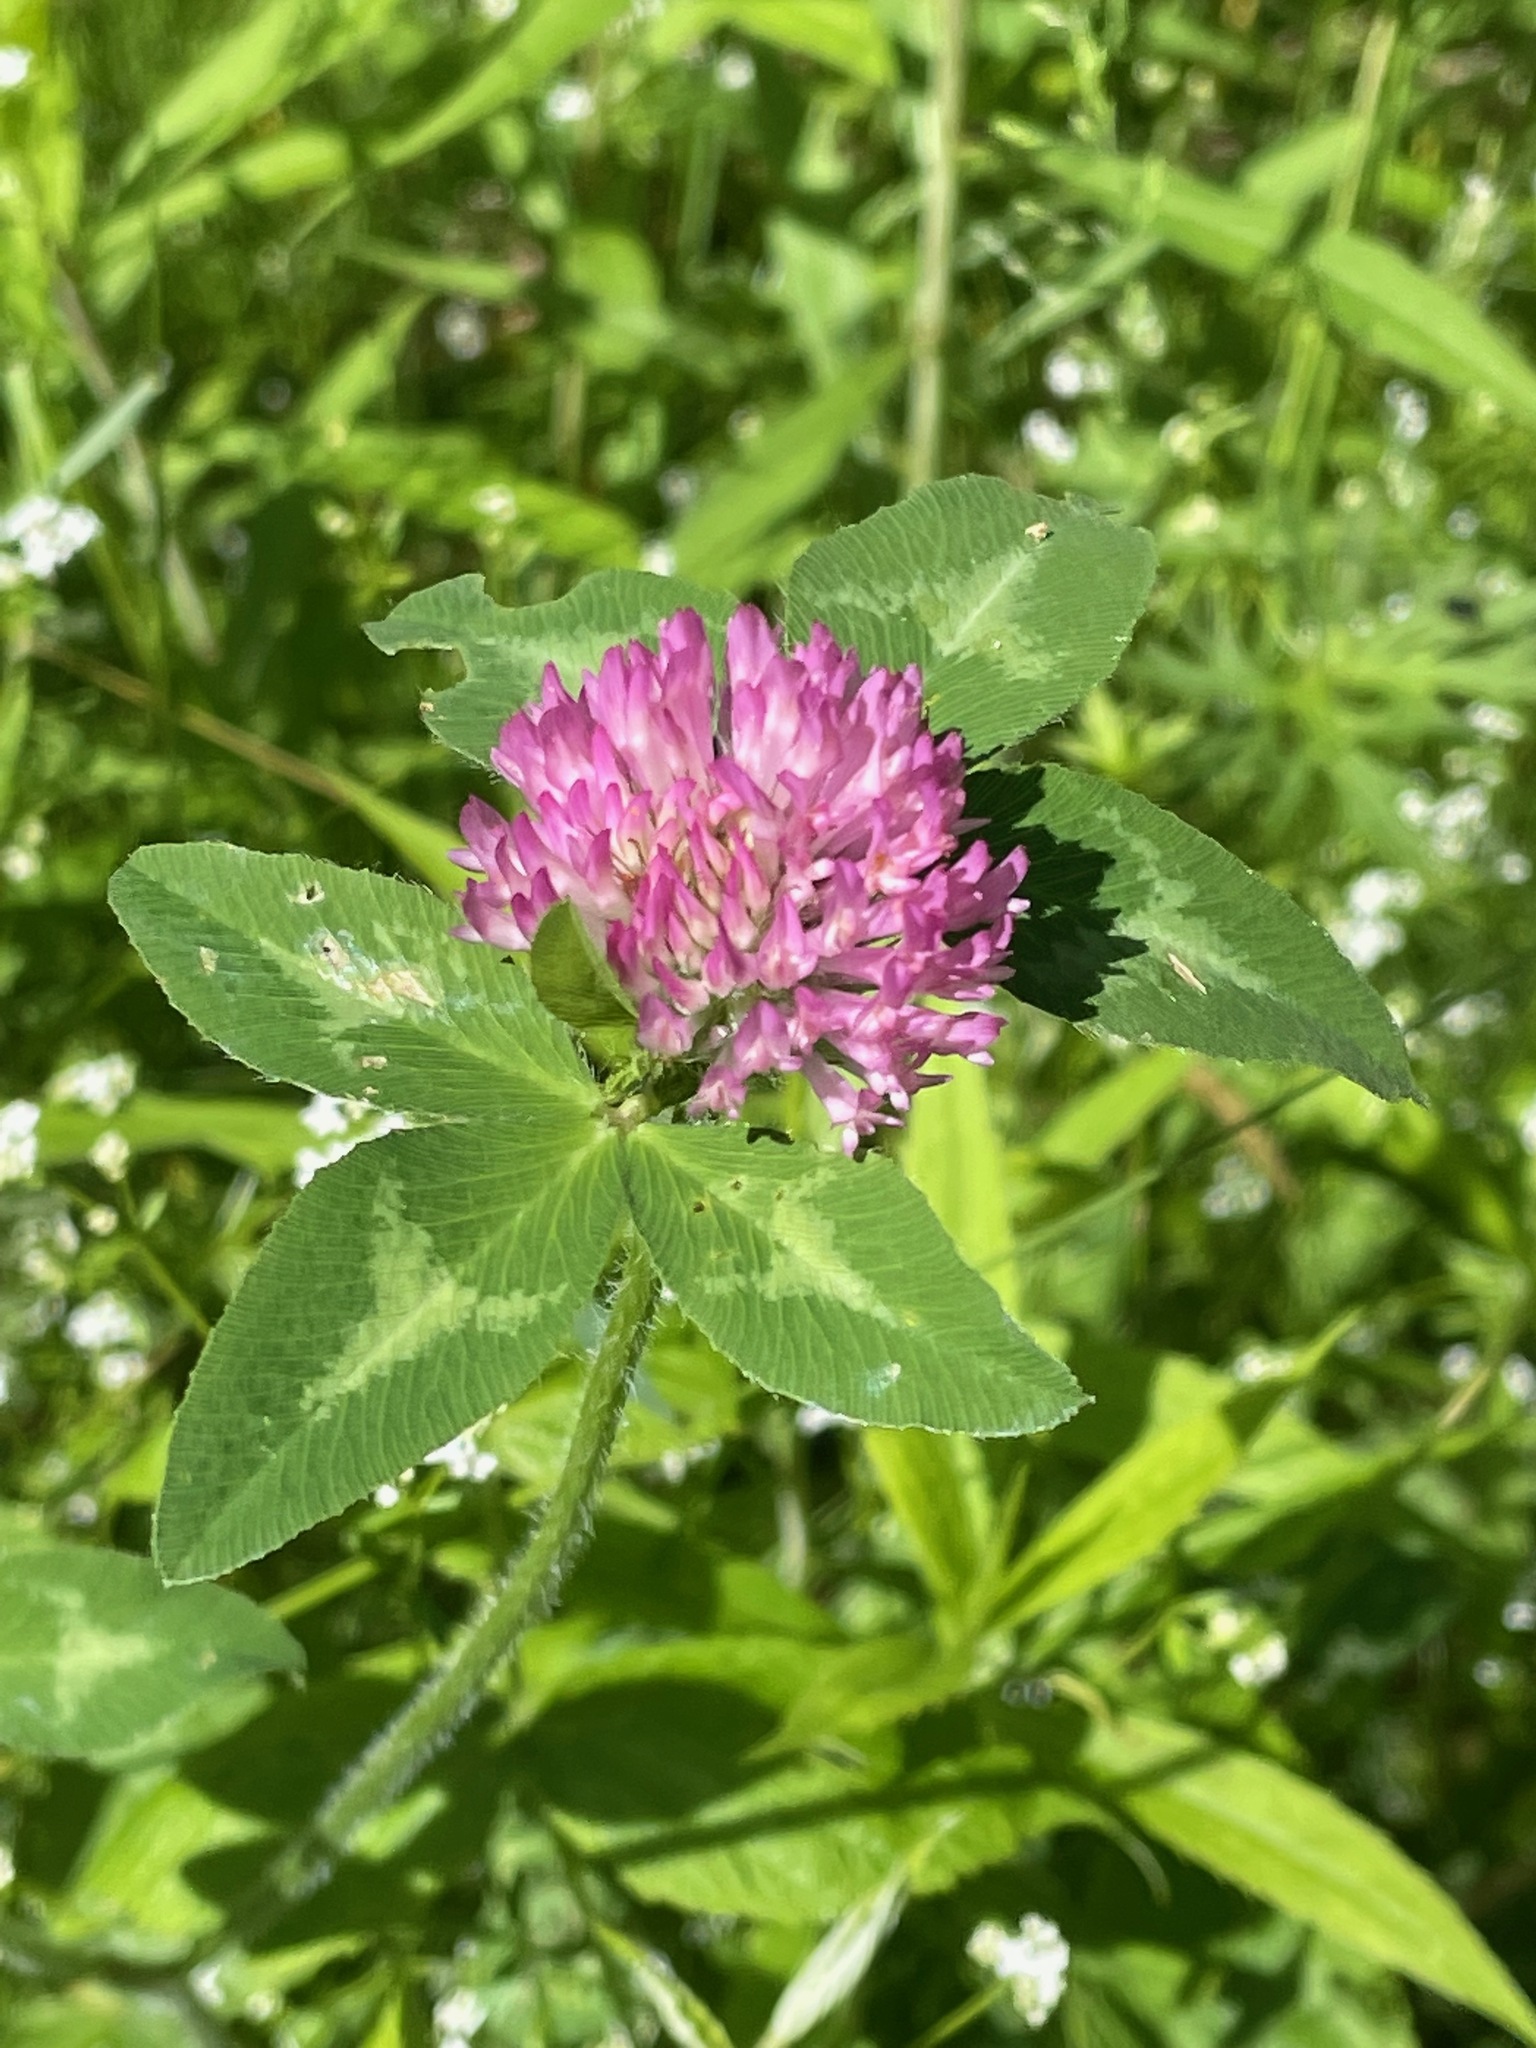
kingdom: Plantae
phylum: Tracheophyta
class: Magnoliopsida
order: Fabales
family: Fabaceae
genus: Trifolium
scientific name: Trifolium pratense
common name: Red clover
